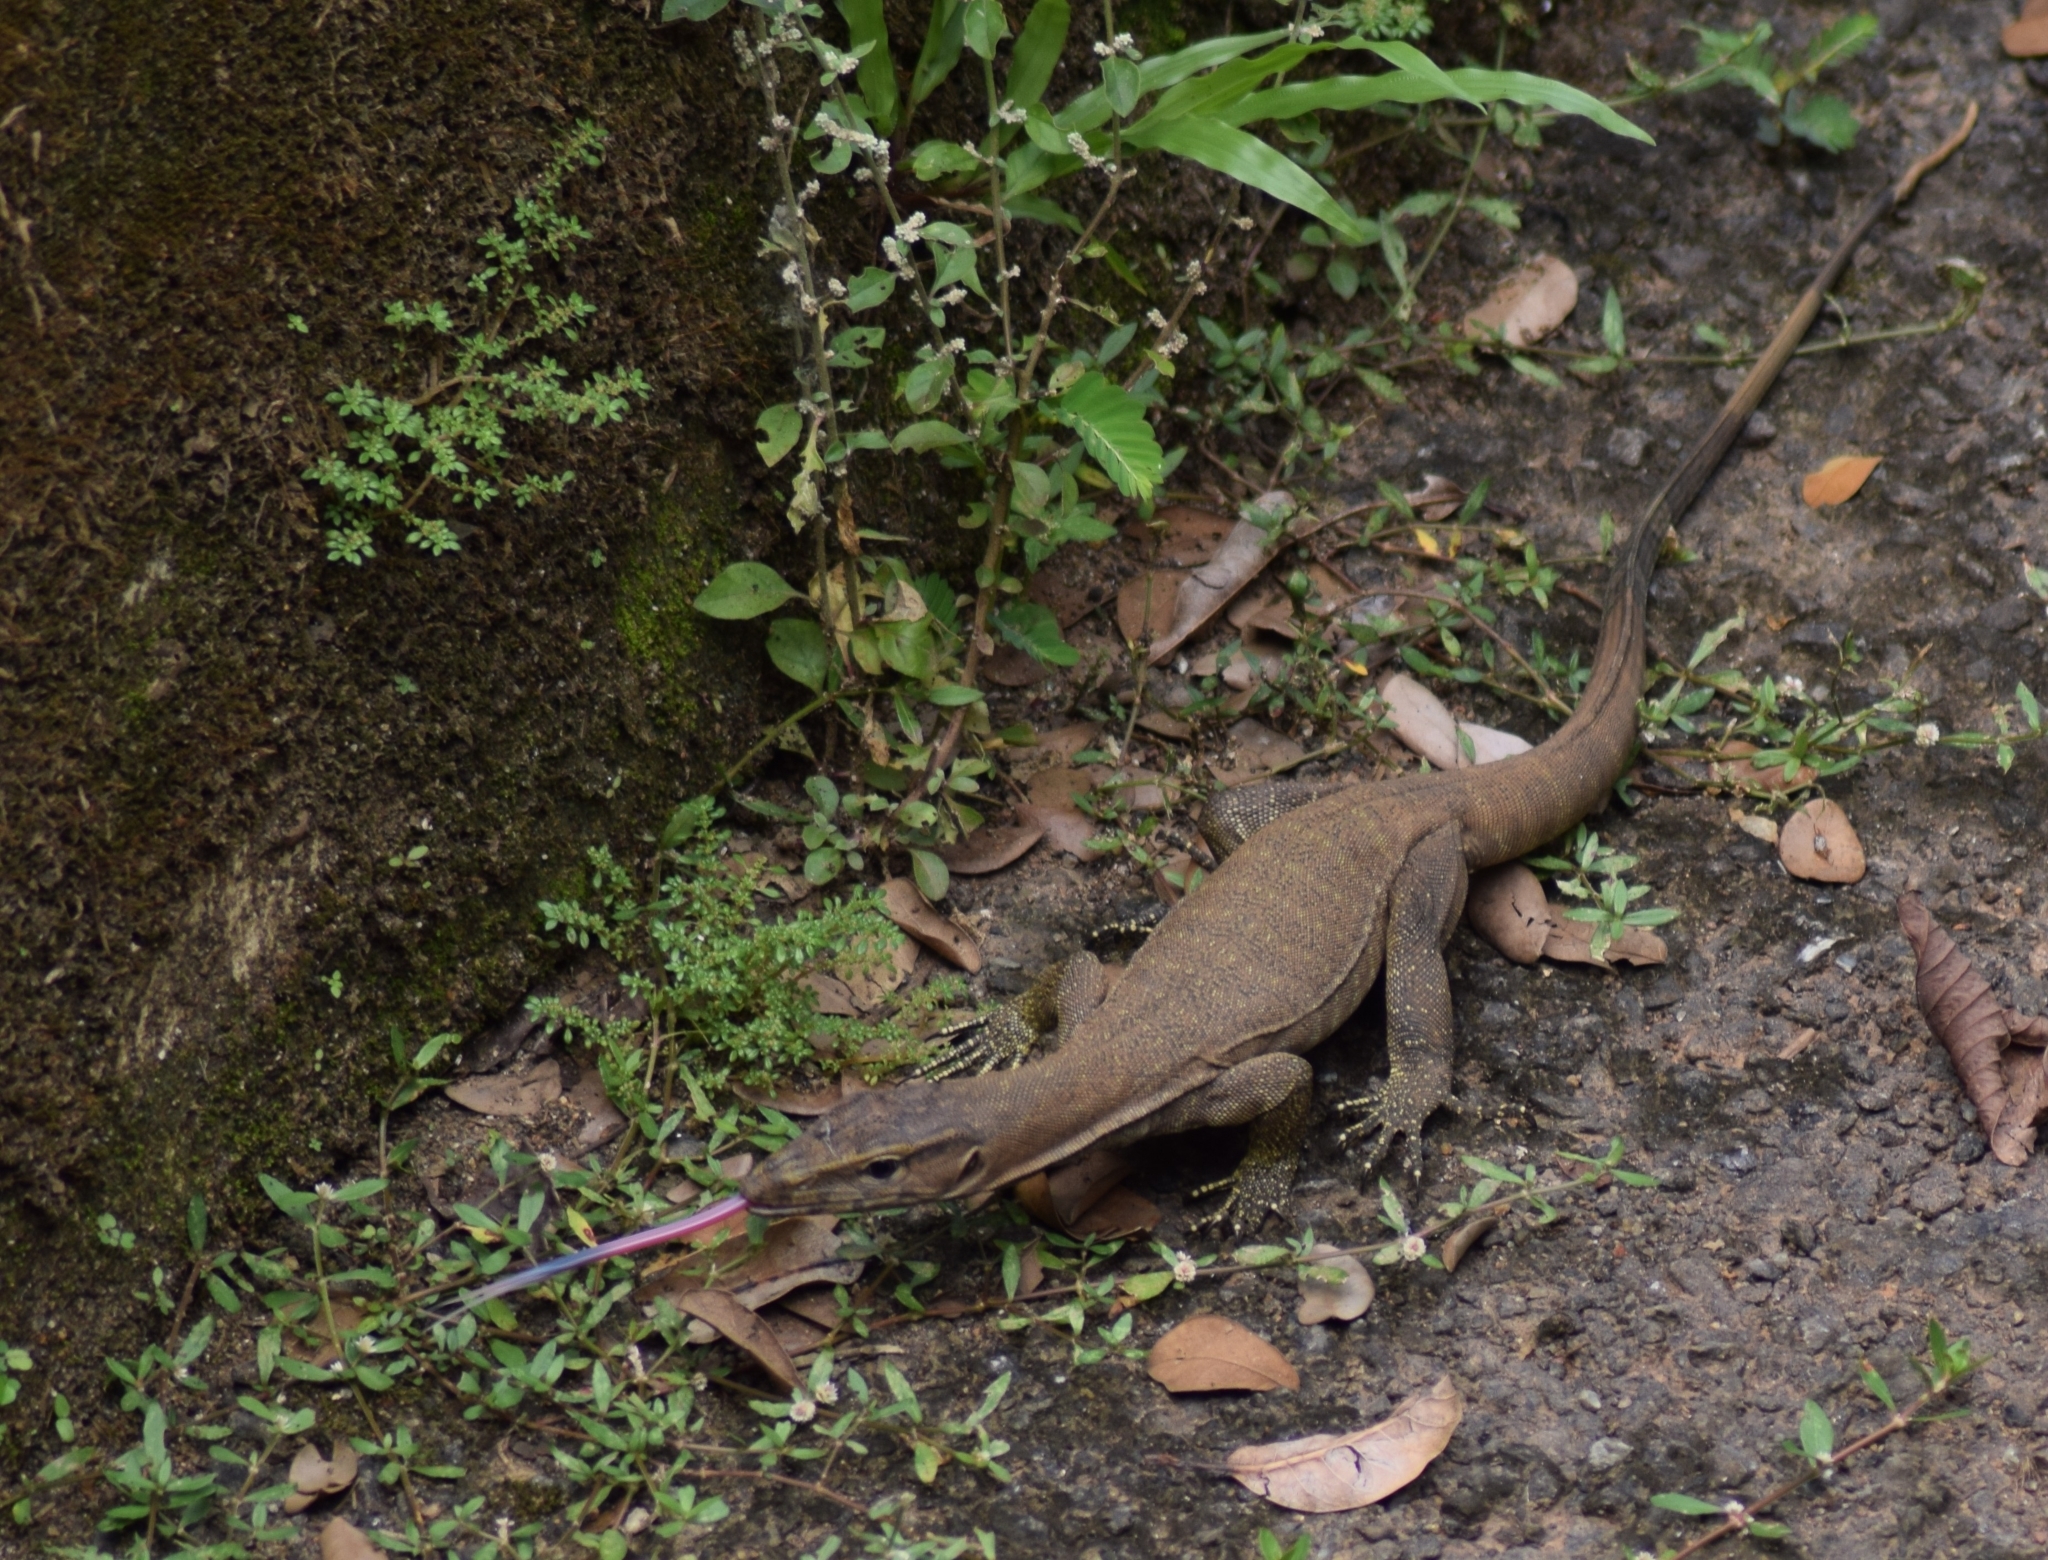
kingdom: Animalia
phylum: Chordata
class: Squamata
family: Varanidae
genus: Varanus
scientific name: Varanus bengalensis
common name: Bengal monitor
